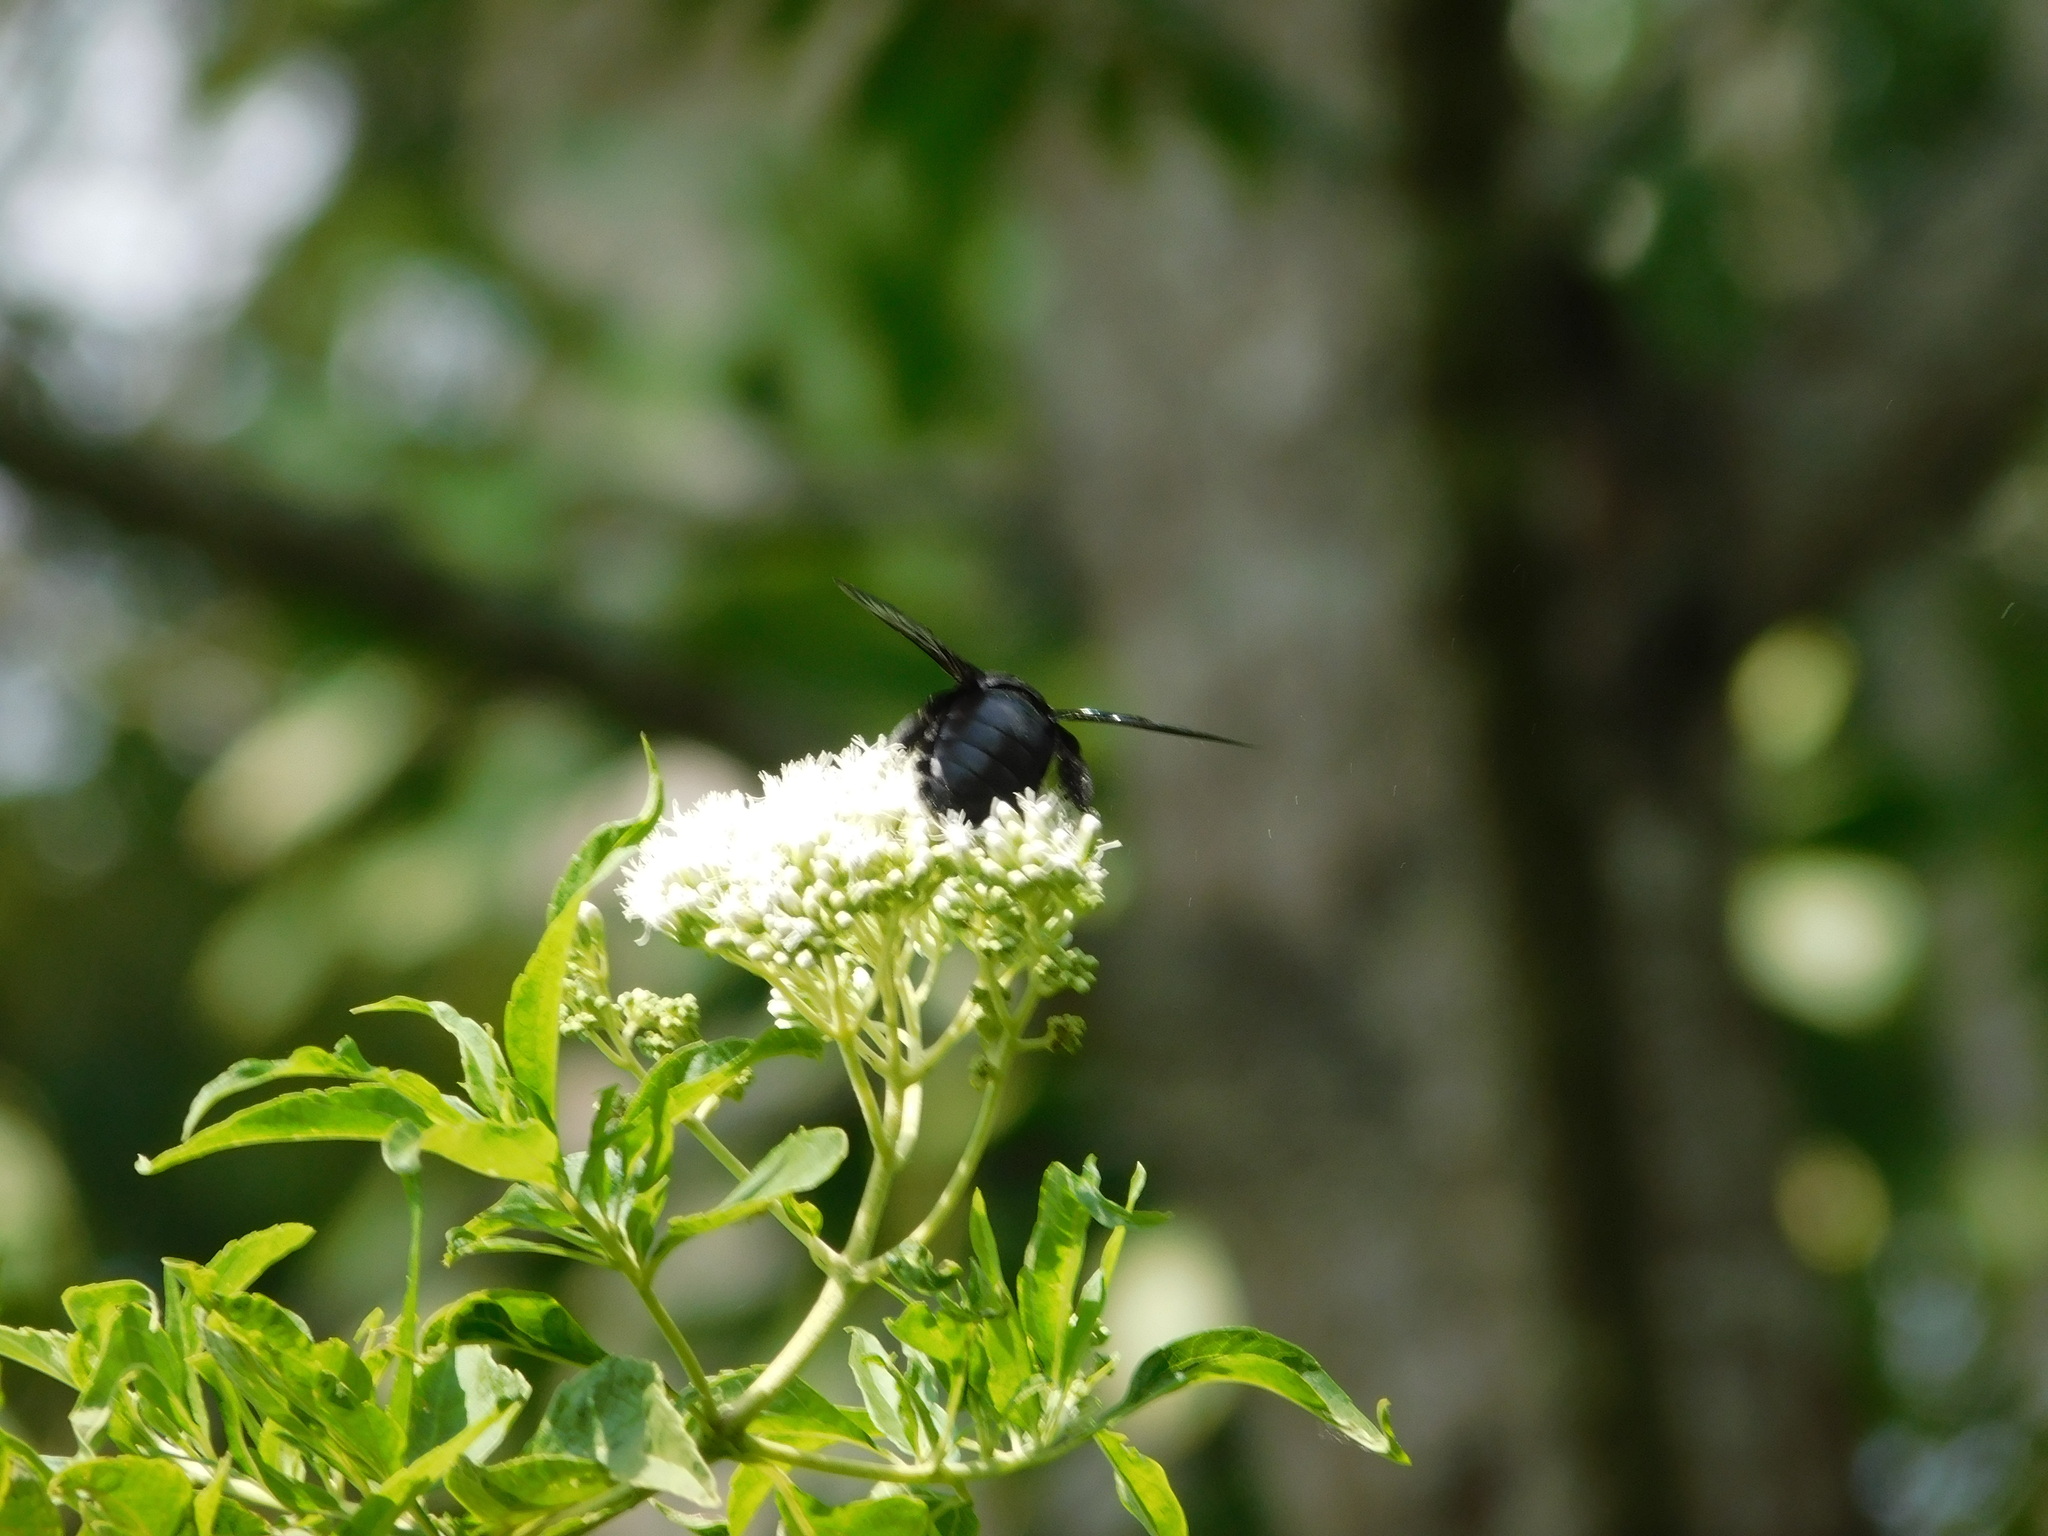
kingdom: Animalia
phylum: Arthropoda
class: Insecta
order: Hymenoptera
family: Apidae
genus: Xylocopa
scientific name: Xylocopa latipes
